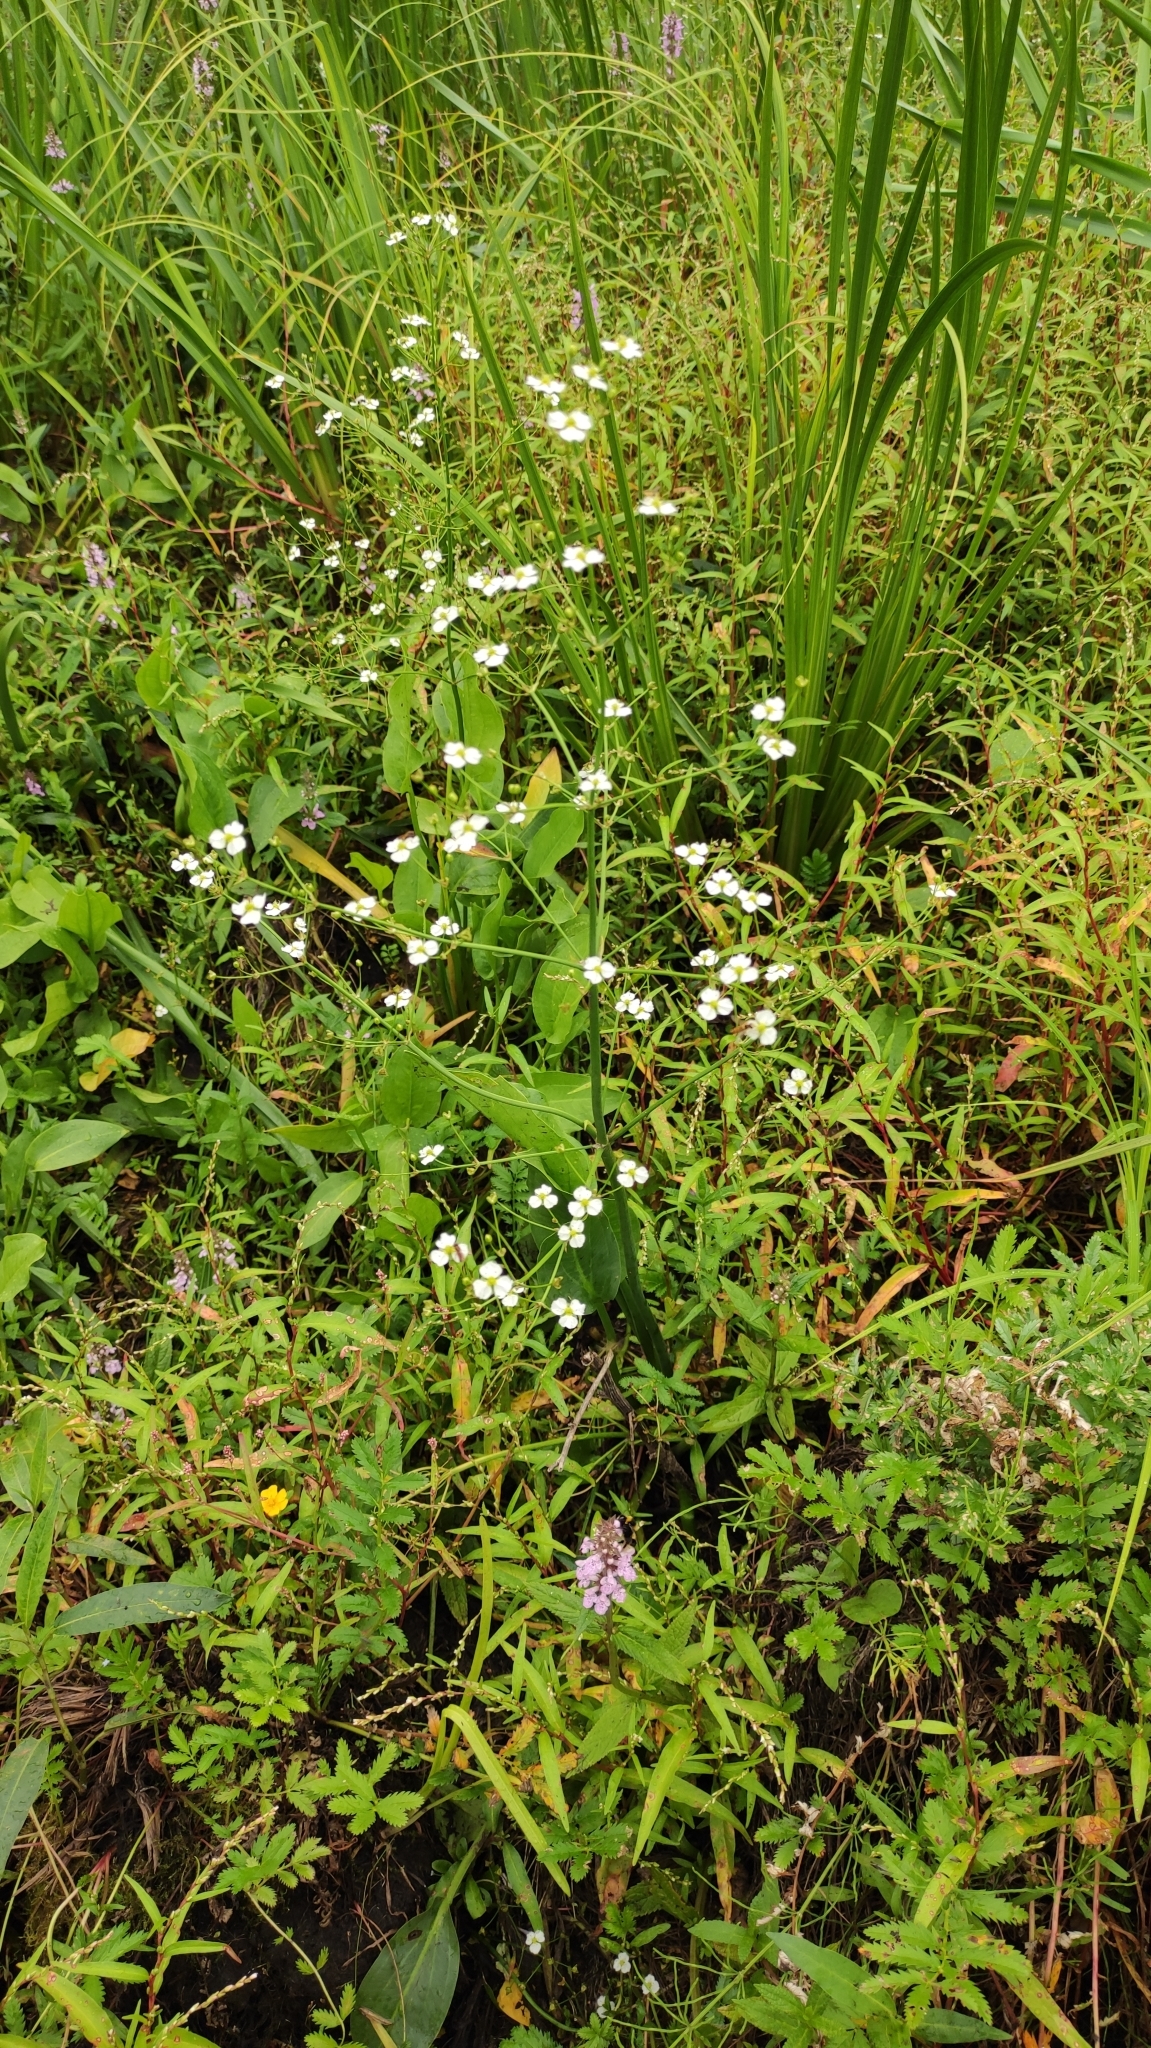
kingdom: Plantae
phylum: Tracheophyta
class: Liliopsida
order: Alismatales
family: Alismataceae
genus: Alisma
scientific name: Alisma plantago-aquatica
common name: Water-plantain
